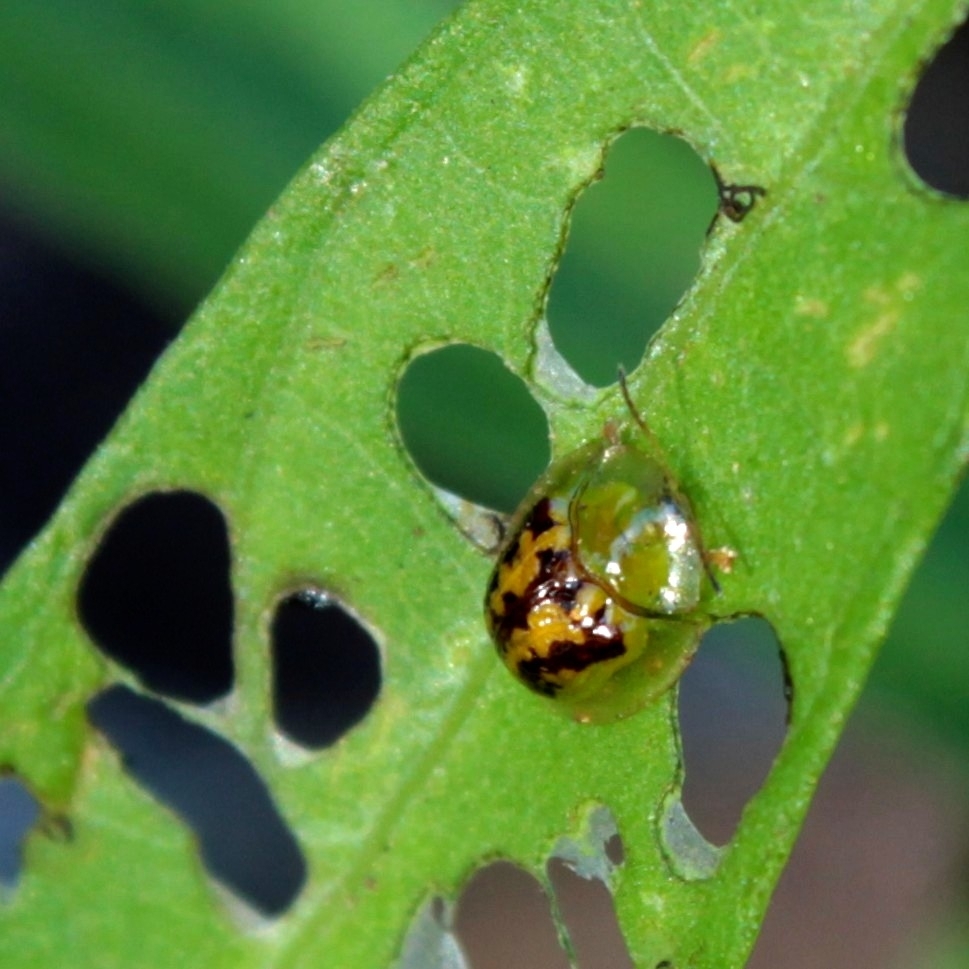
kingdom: Animalia
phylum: Arthropoda
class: Insecta
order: Coleoptera
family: Chrysomelidae
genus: Cassida
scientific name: Cassida diomma
